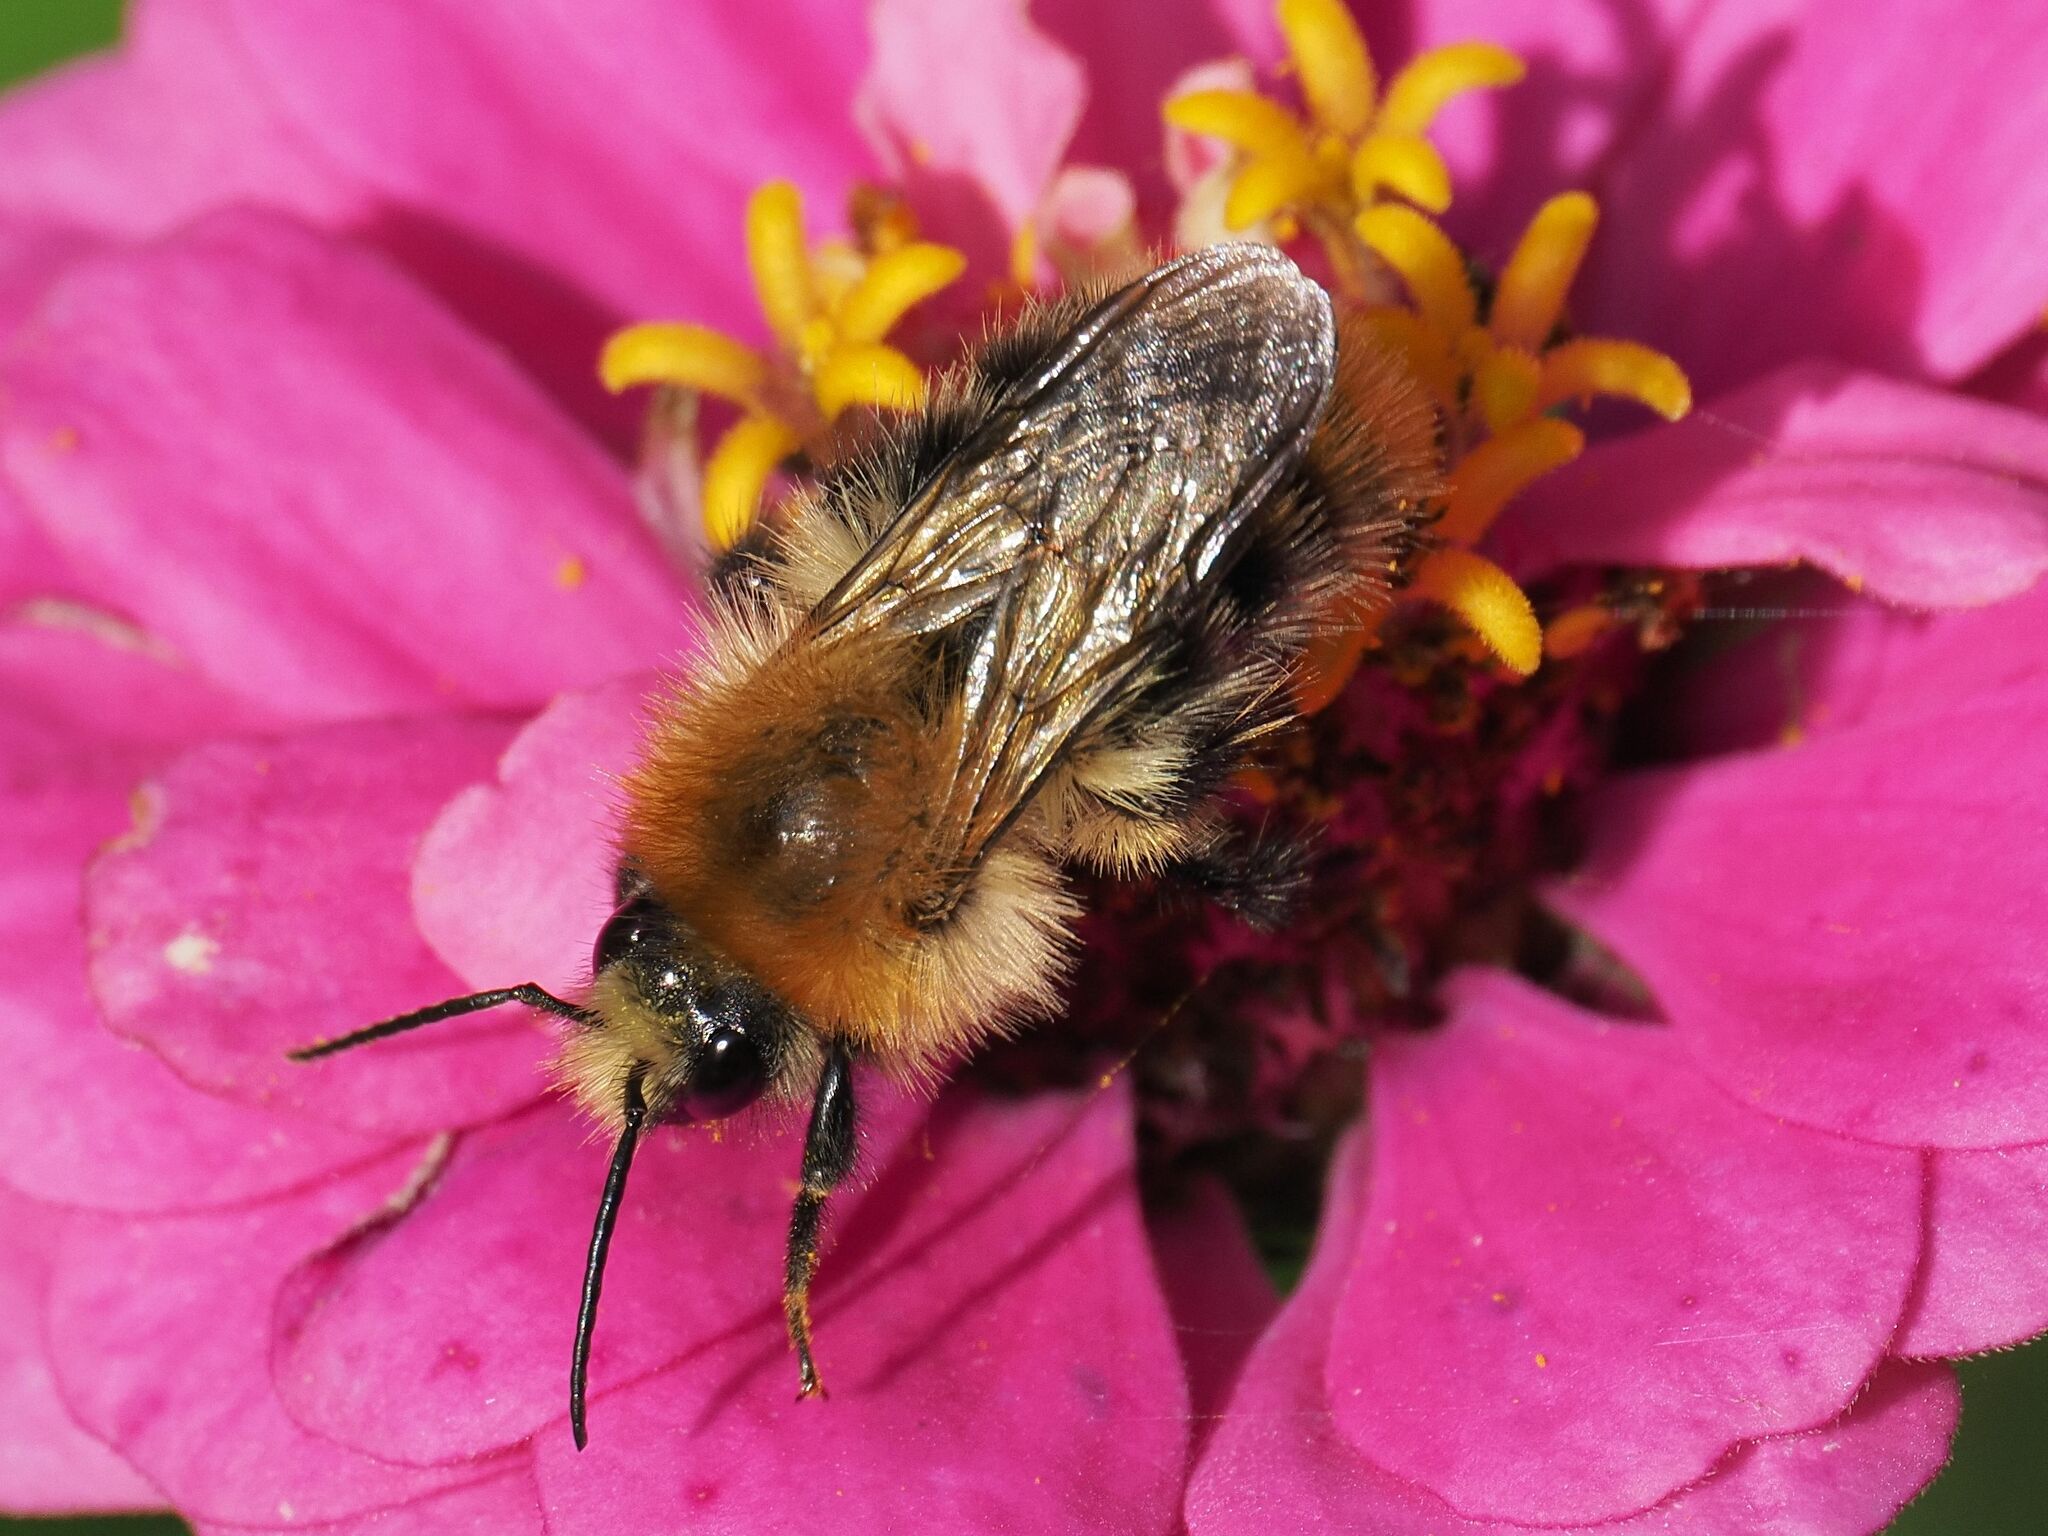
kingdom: Animalia
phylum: Arthropoda
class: Insecta
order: Hymenoptera
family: Apidae
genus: Bombus
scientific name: Bombus pascuorum
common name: Common carder bee
